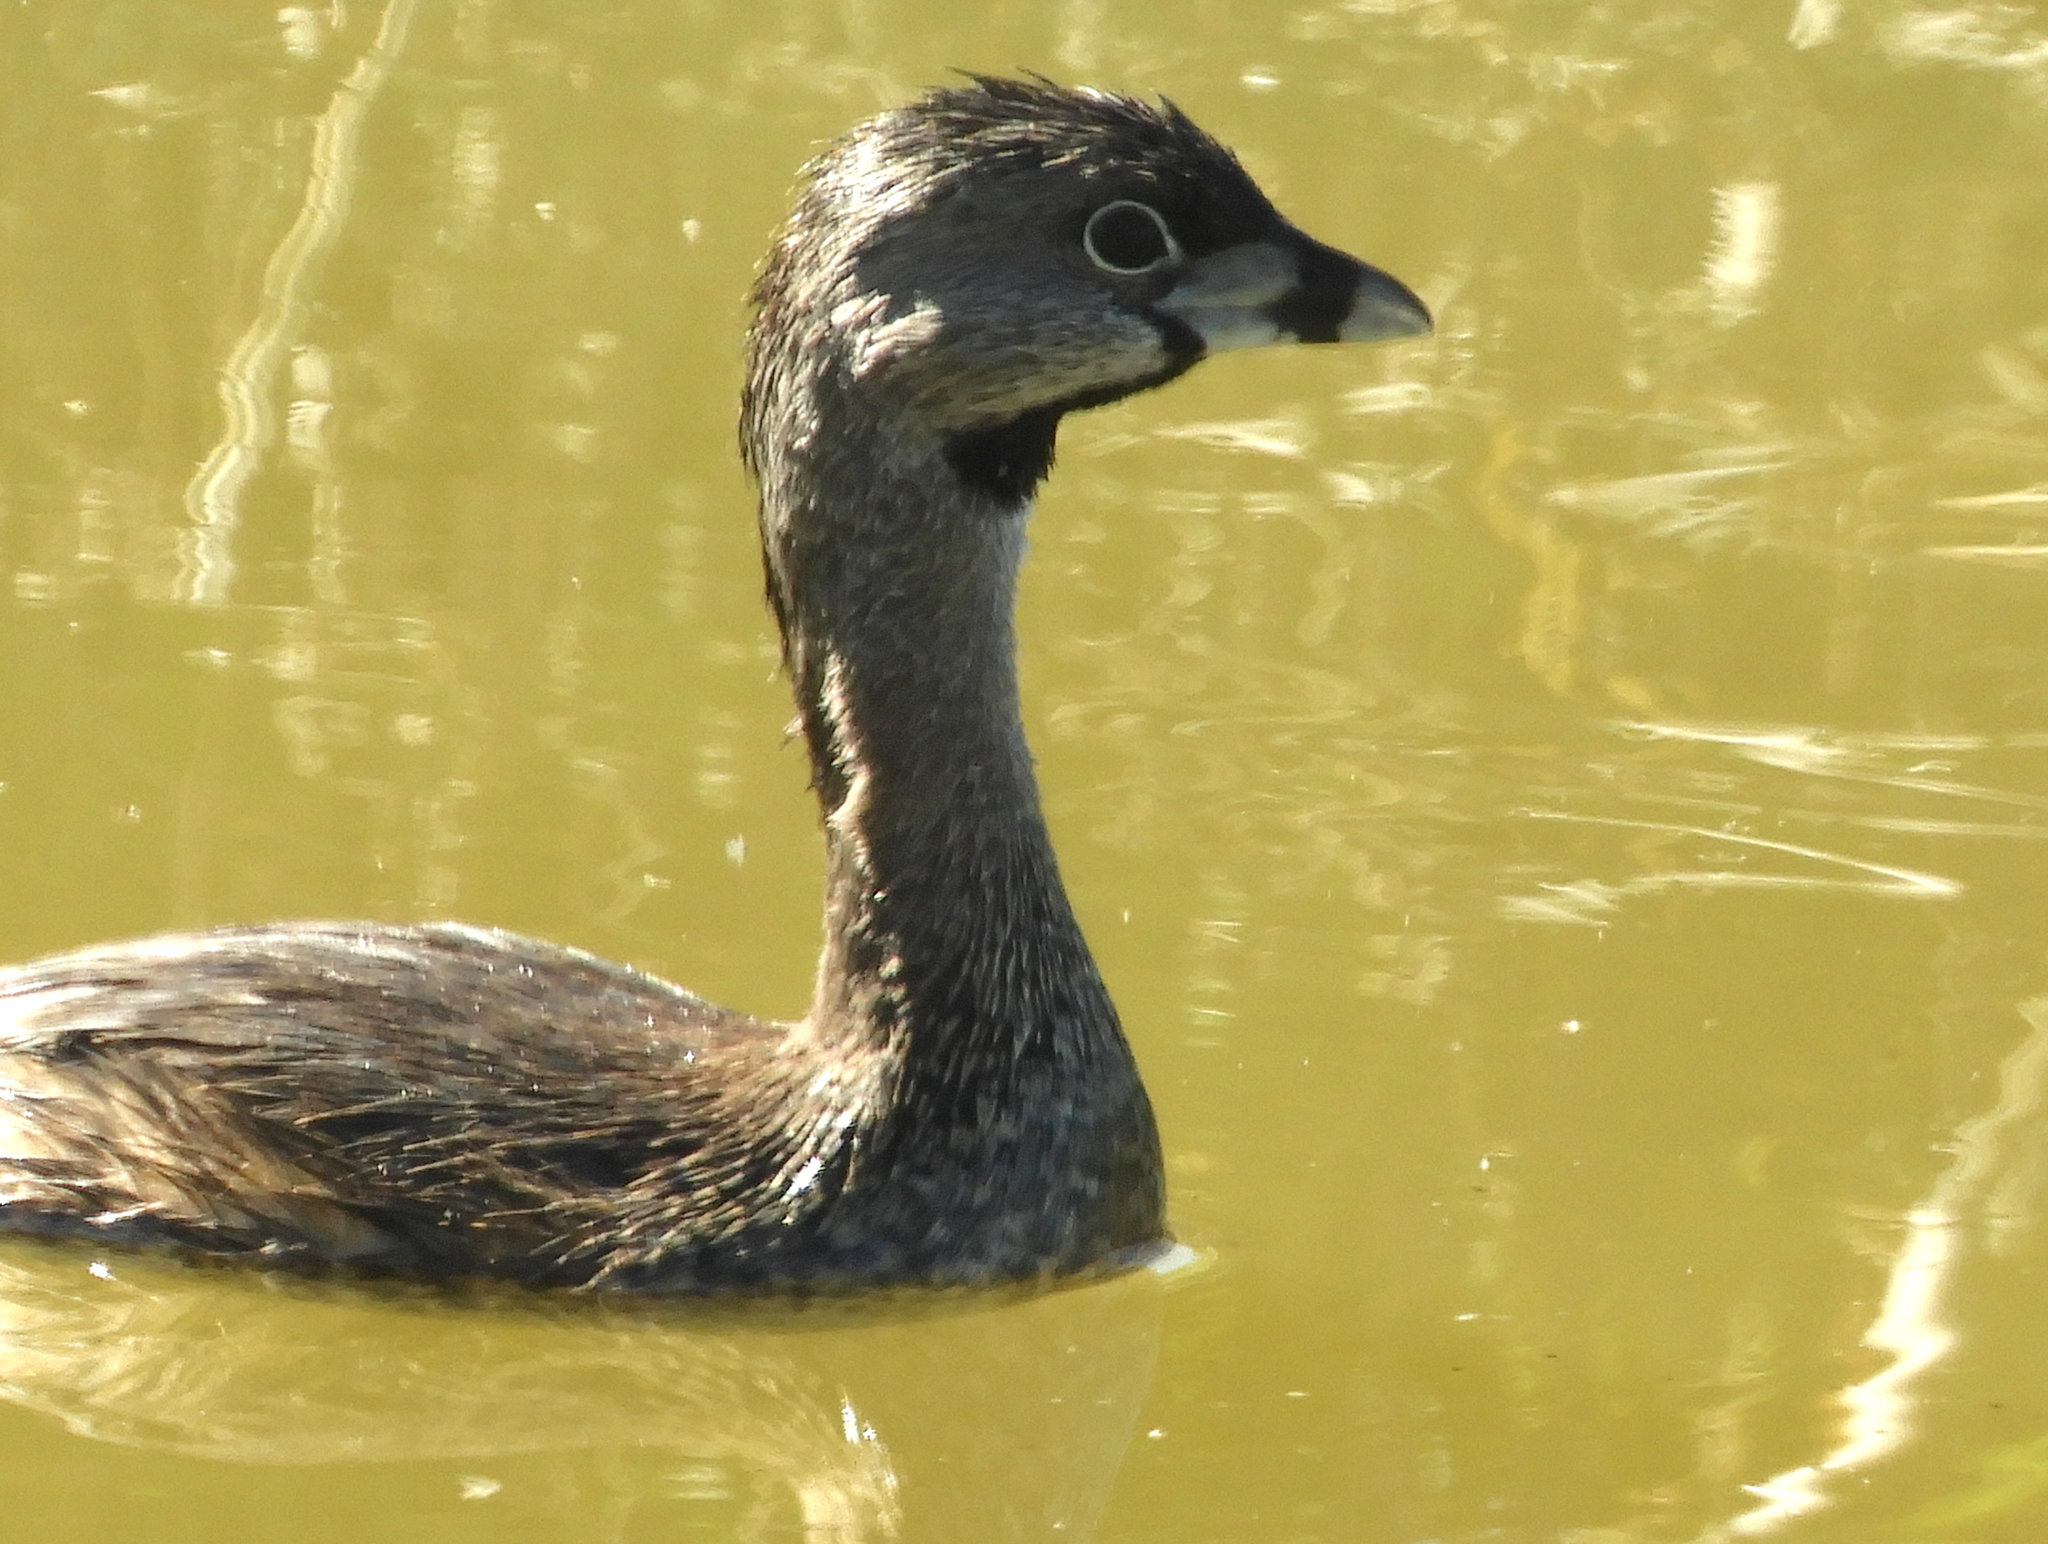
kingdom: Animalia
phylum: Chordata
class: Aves
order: Podicipediformes
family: Podicipedidae
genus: Podilymbus
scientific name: Podilymbus podiceps
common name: Pied-billed grebe
